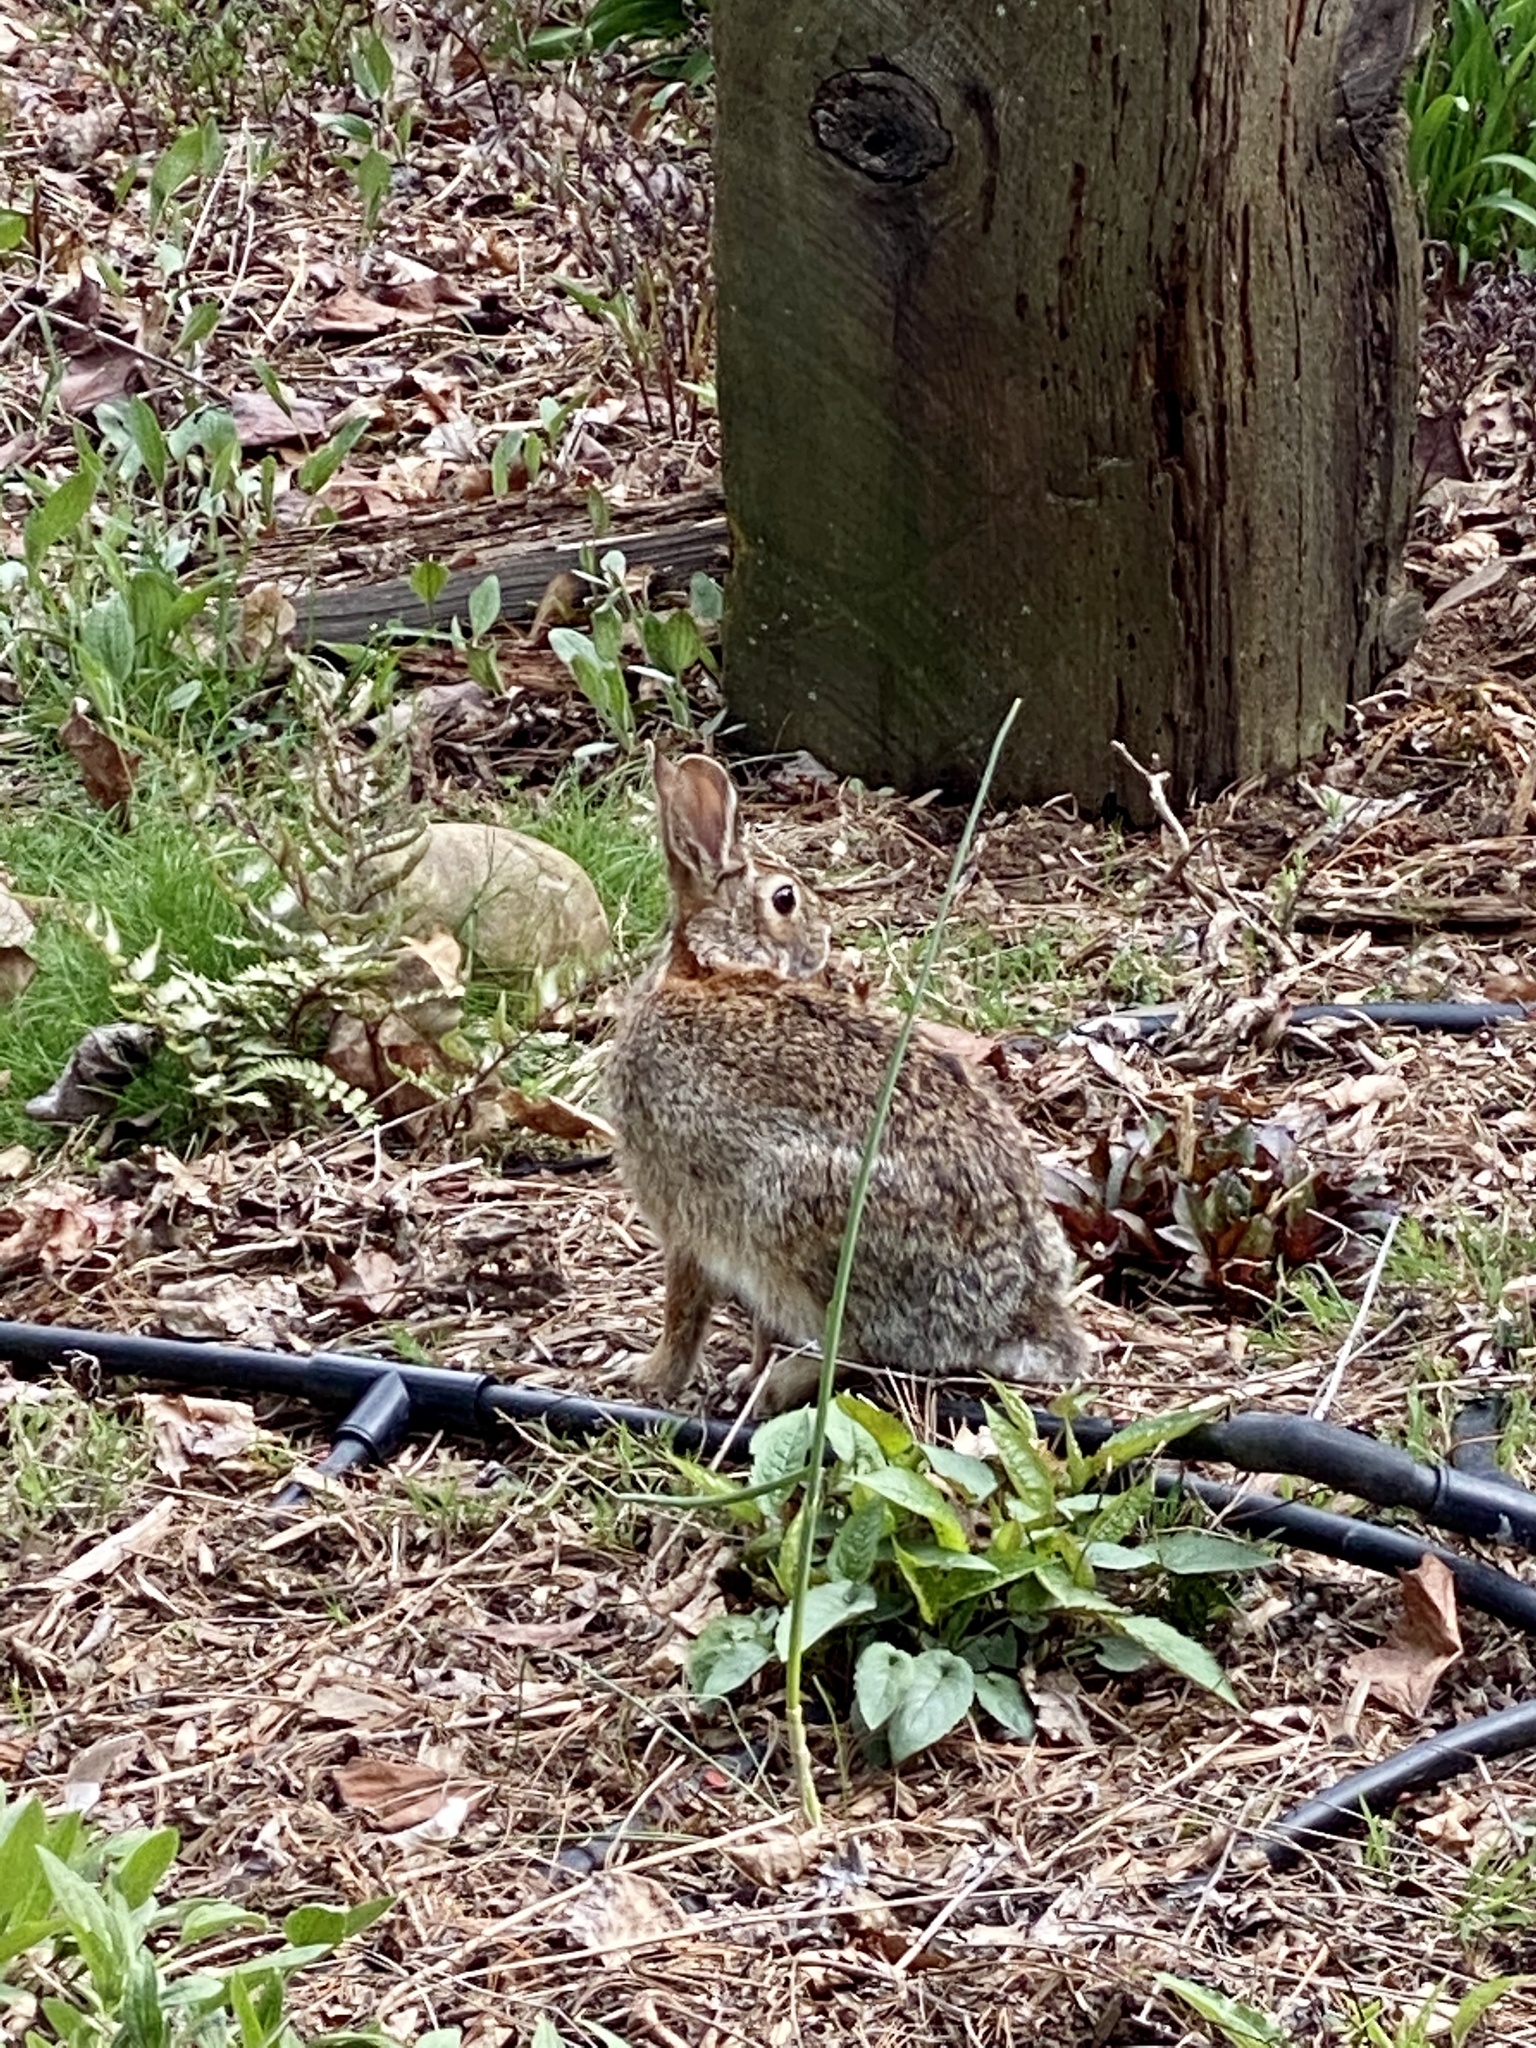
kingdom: Animalia
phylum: Chordata
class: Mammalia
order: Lagomorpha
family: Leporidae
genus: Sylvilagus
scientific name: Sylvilagus floridanus
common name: Eastern cottontail
